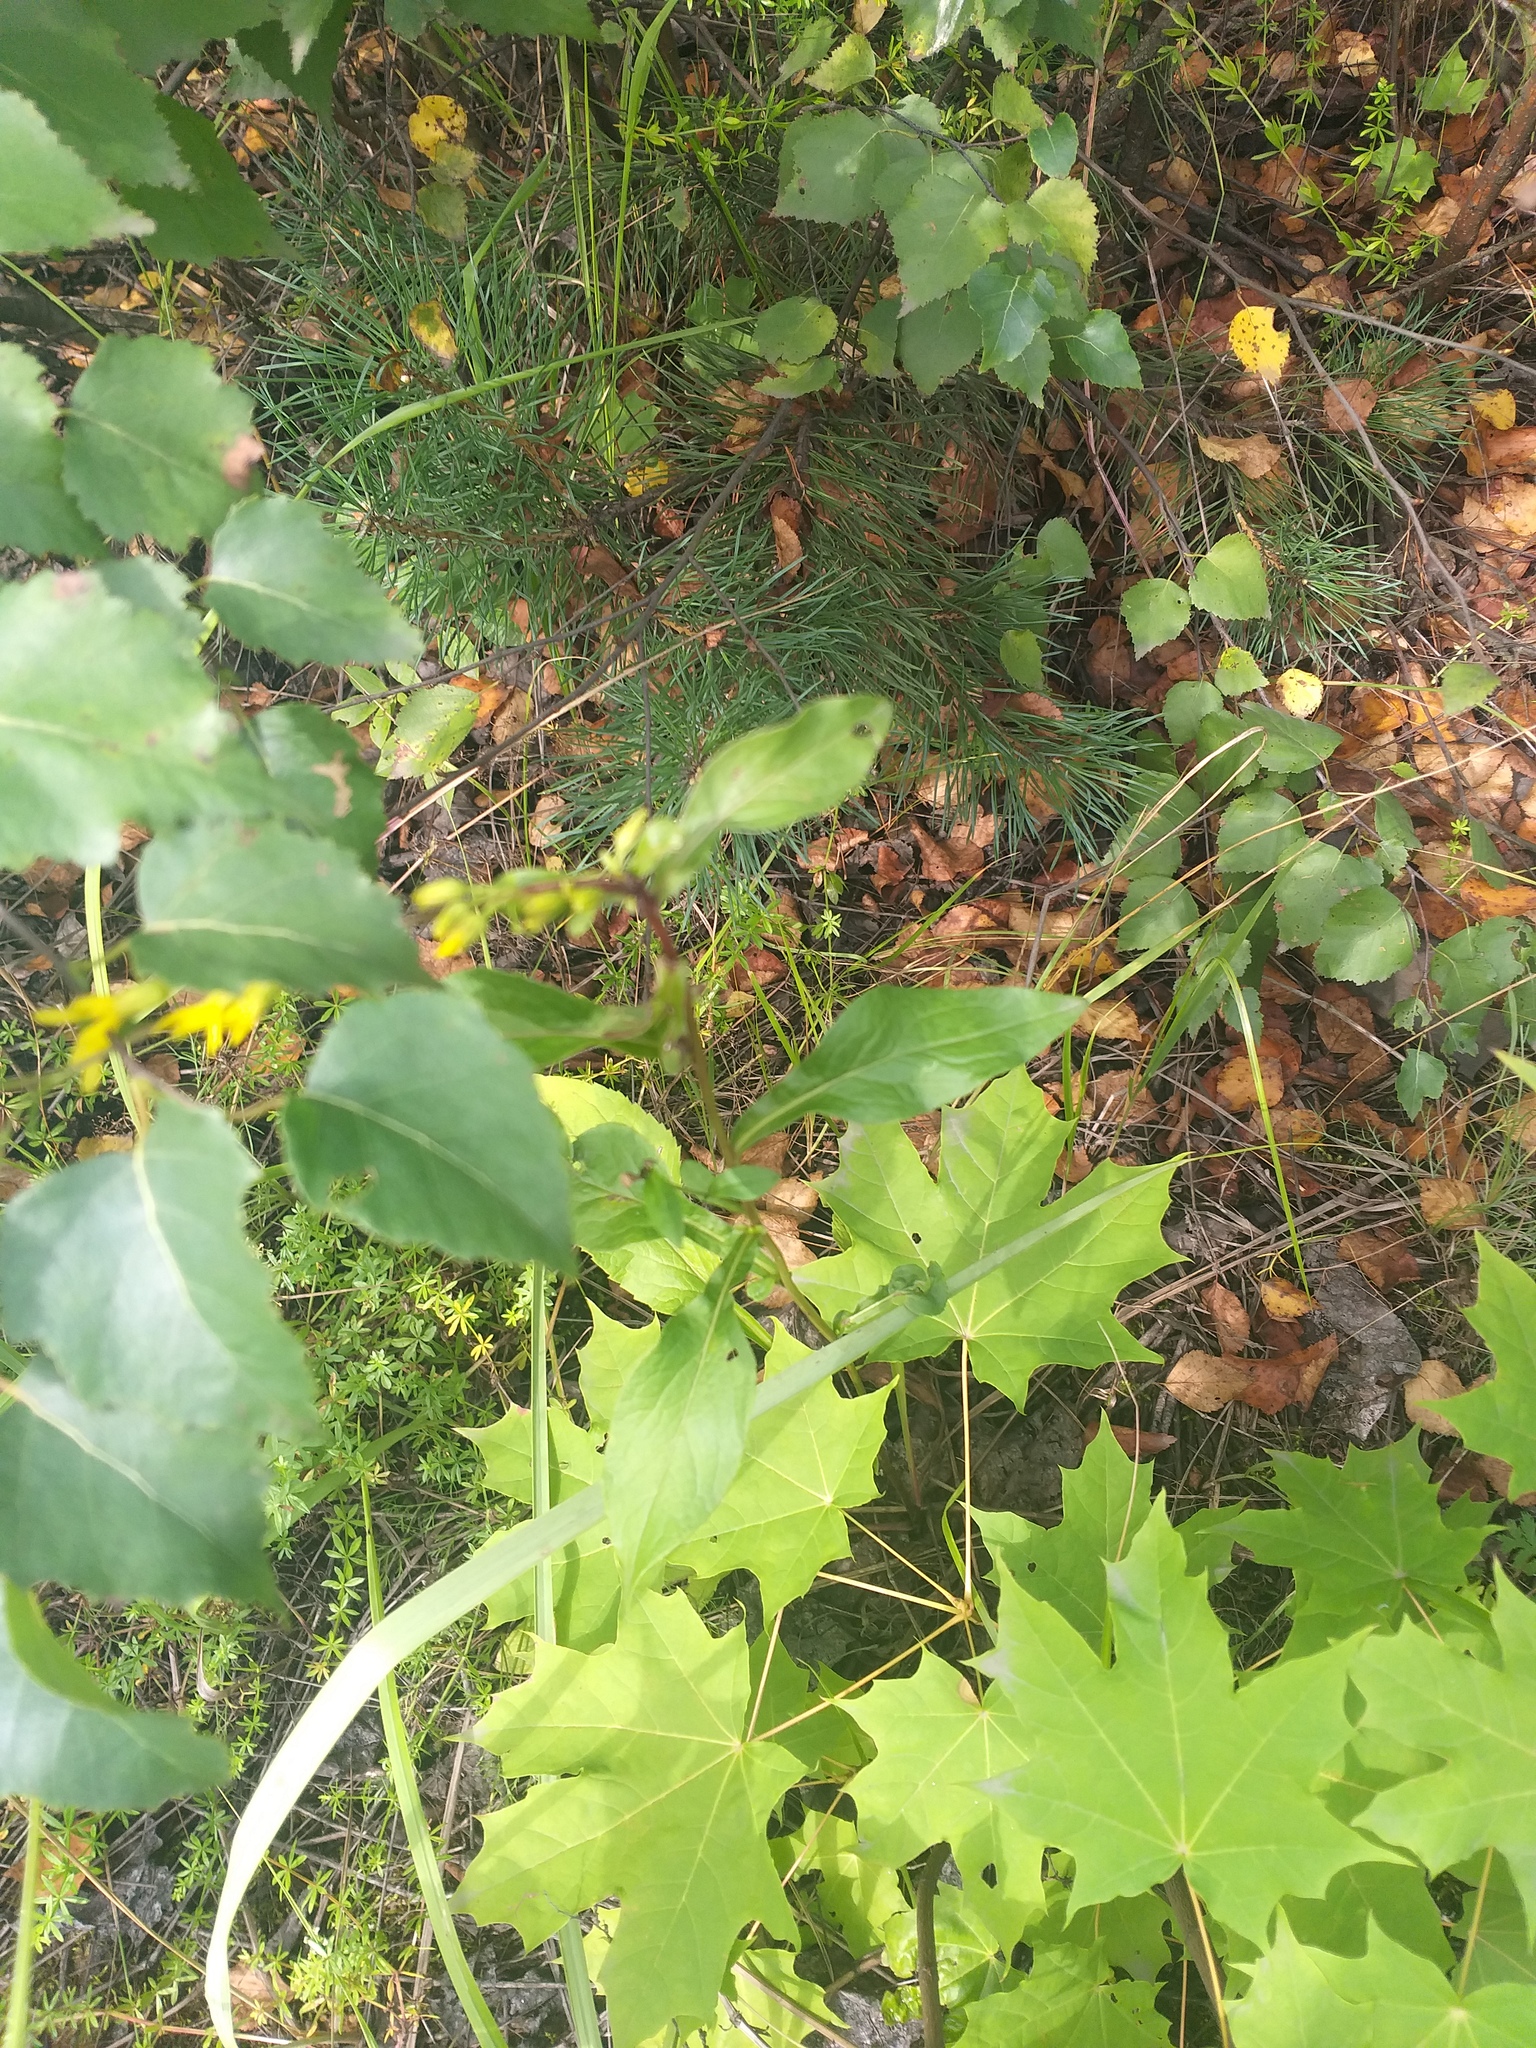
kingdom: Plantae
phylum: Tracheophyta
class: Magnoliopsida
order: Asterales
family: Asteraceae
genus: Solidago
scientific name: Solidago virgaurea
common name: Goldenrod
